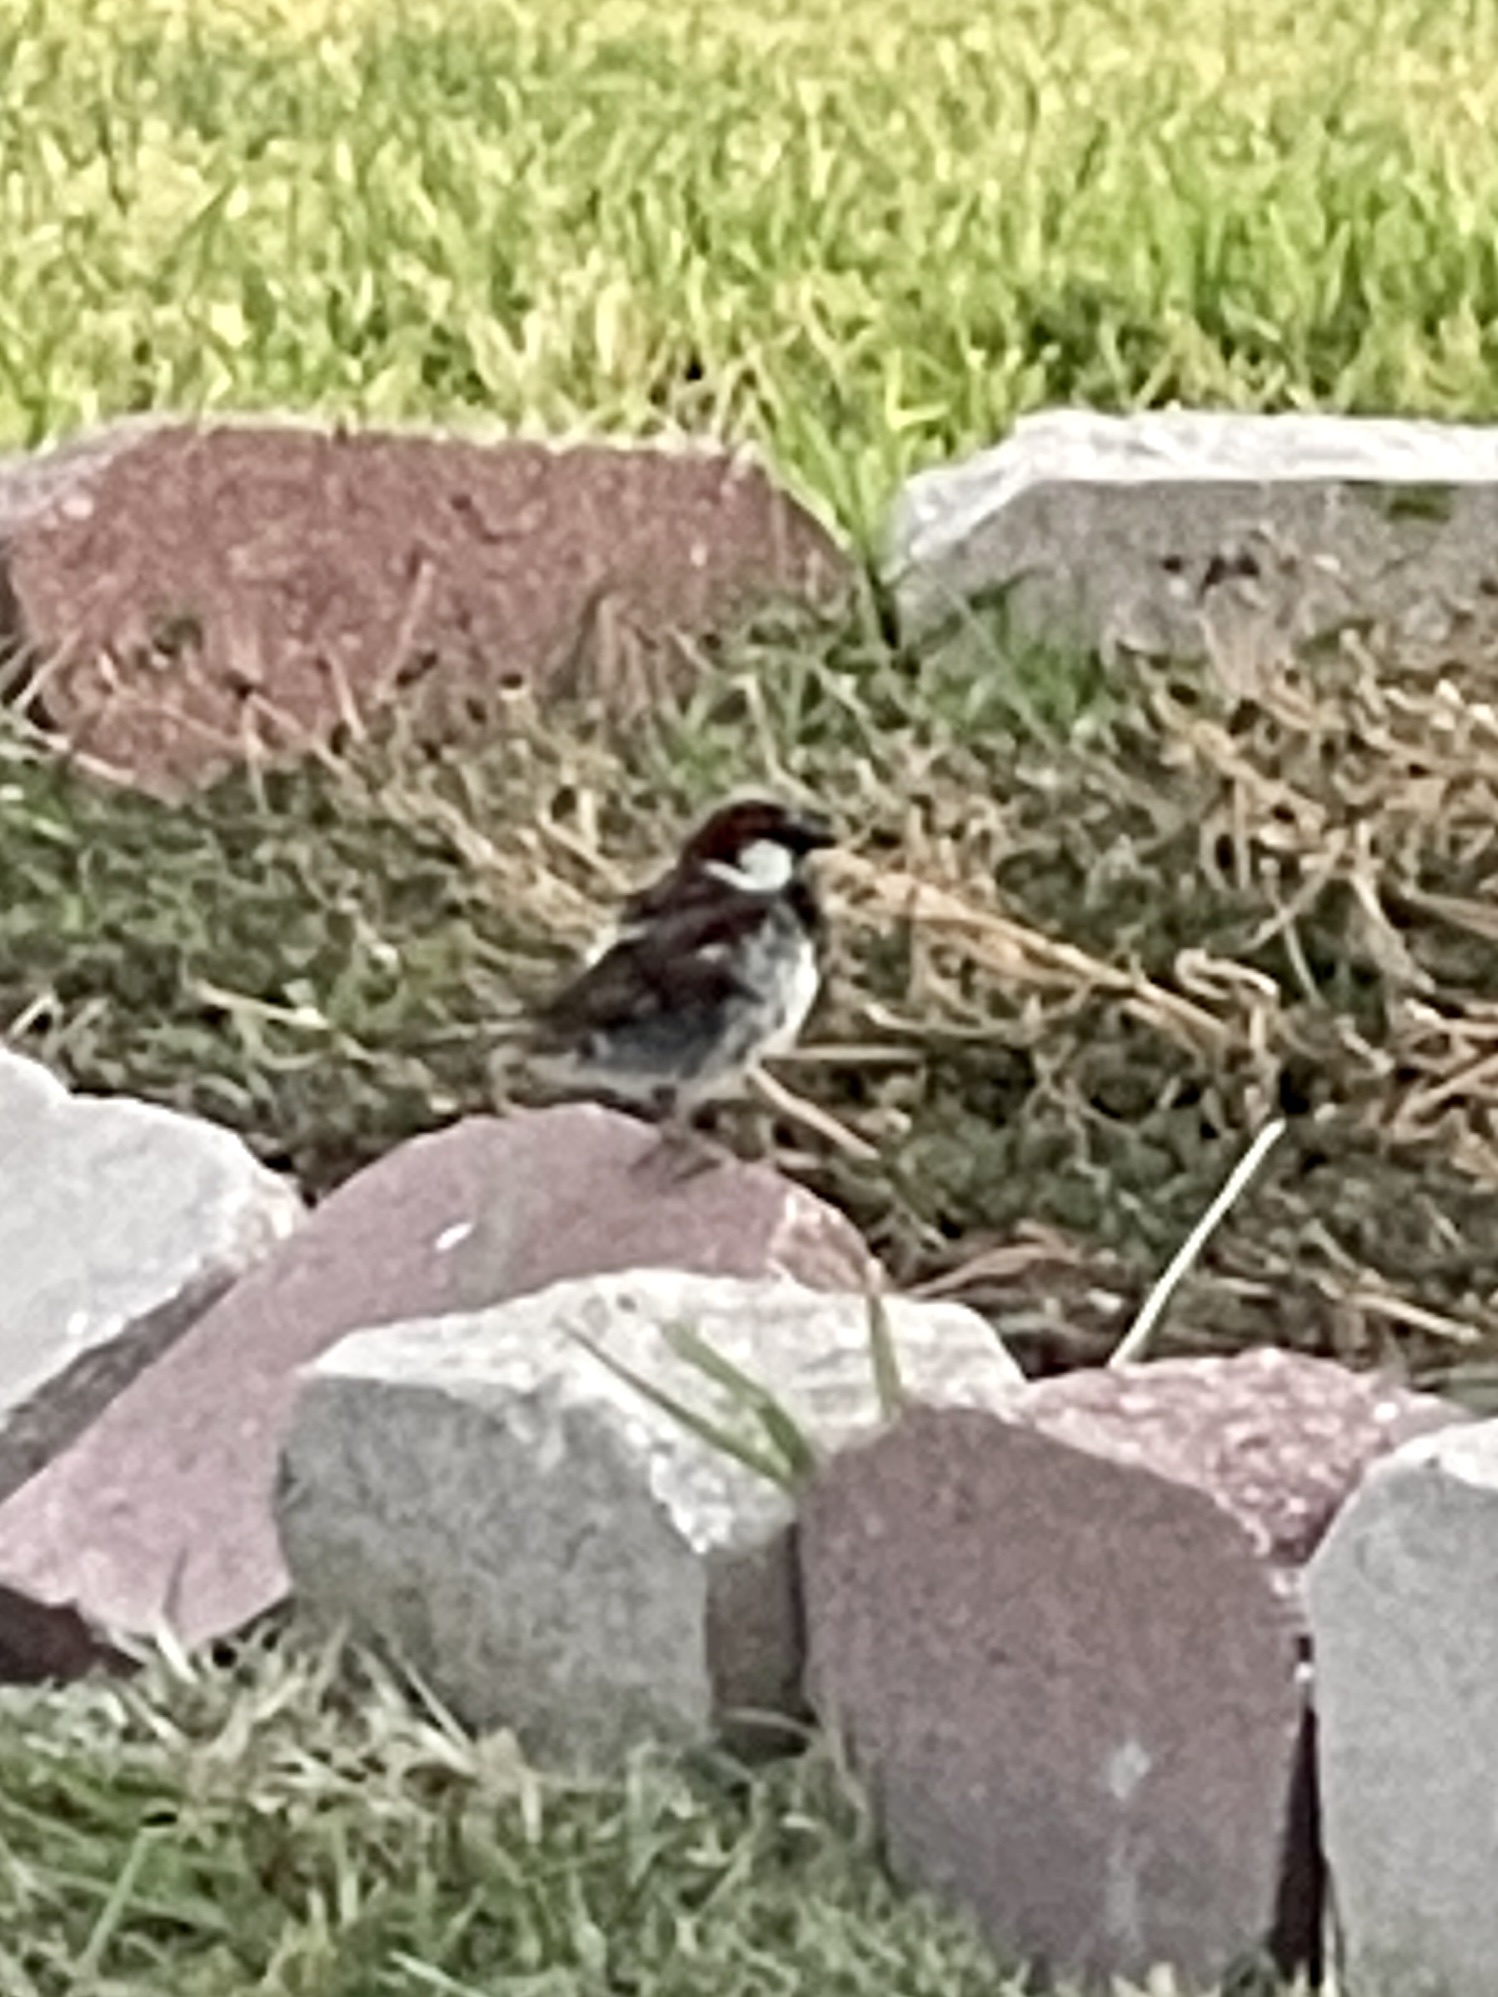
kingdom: Animalia
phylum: Chordata
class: Aves
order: Passeriformes
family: Passeridae
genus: Passer
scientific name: Passer domesticus
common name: House sparrow
